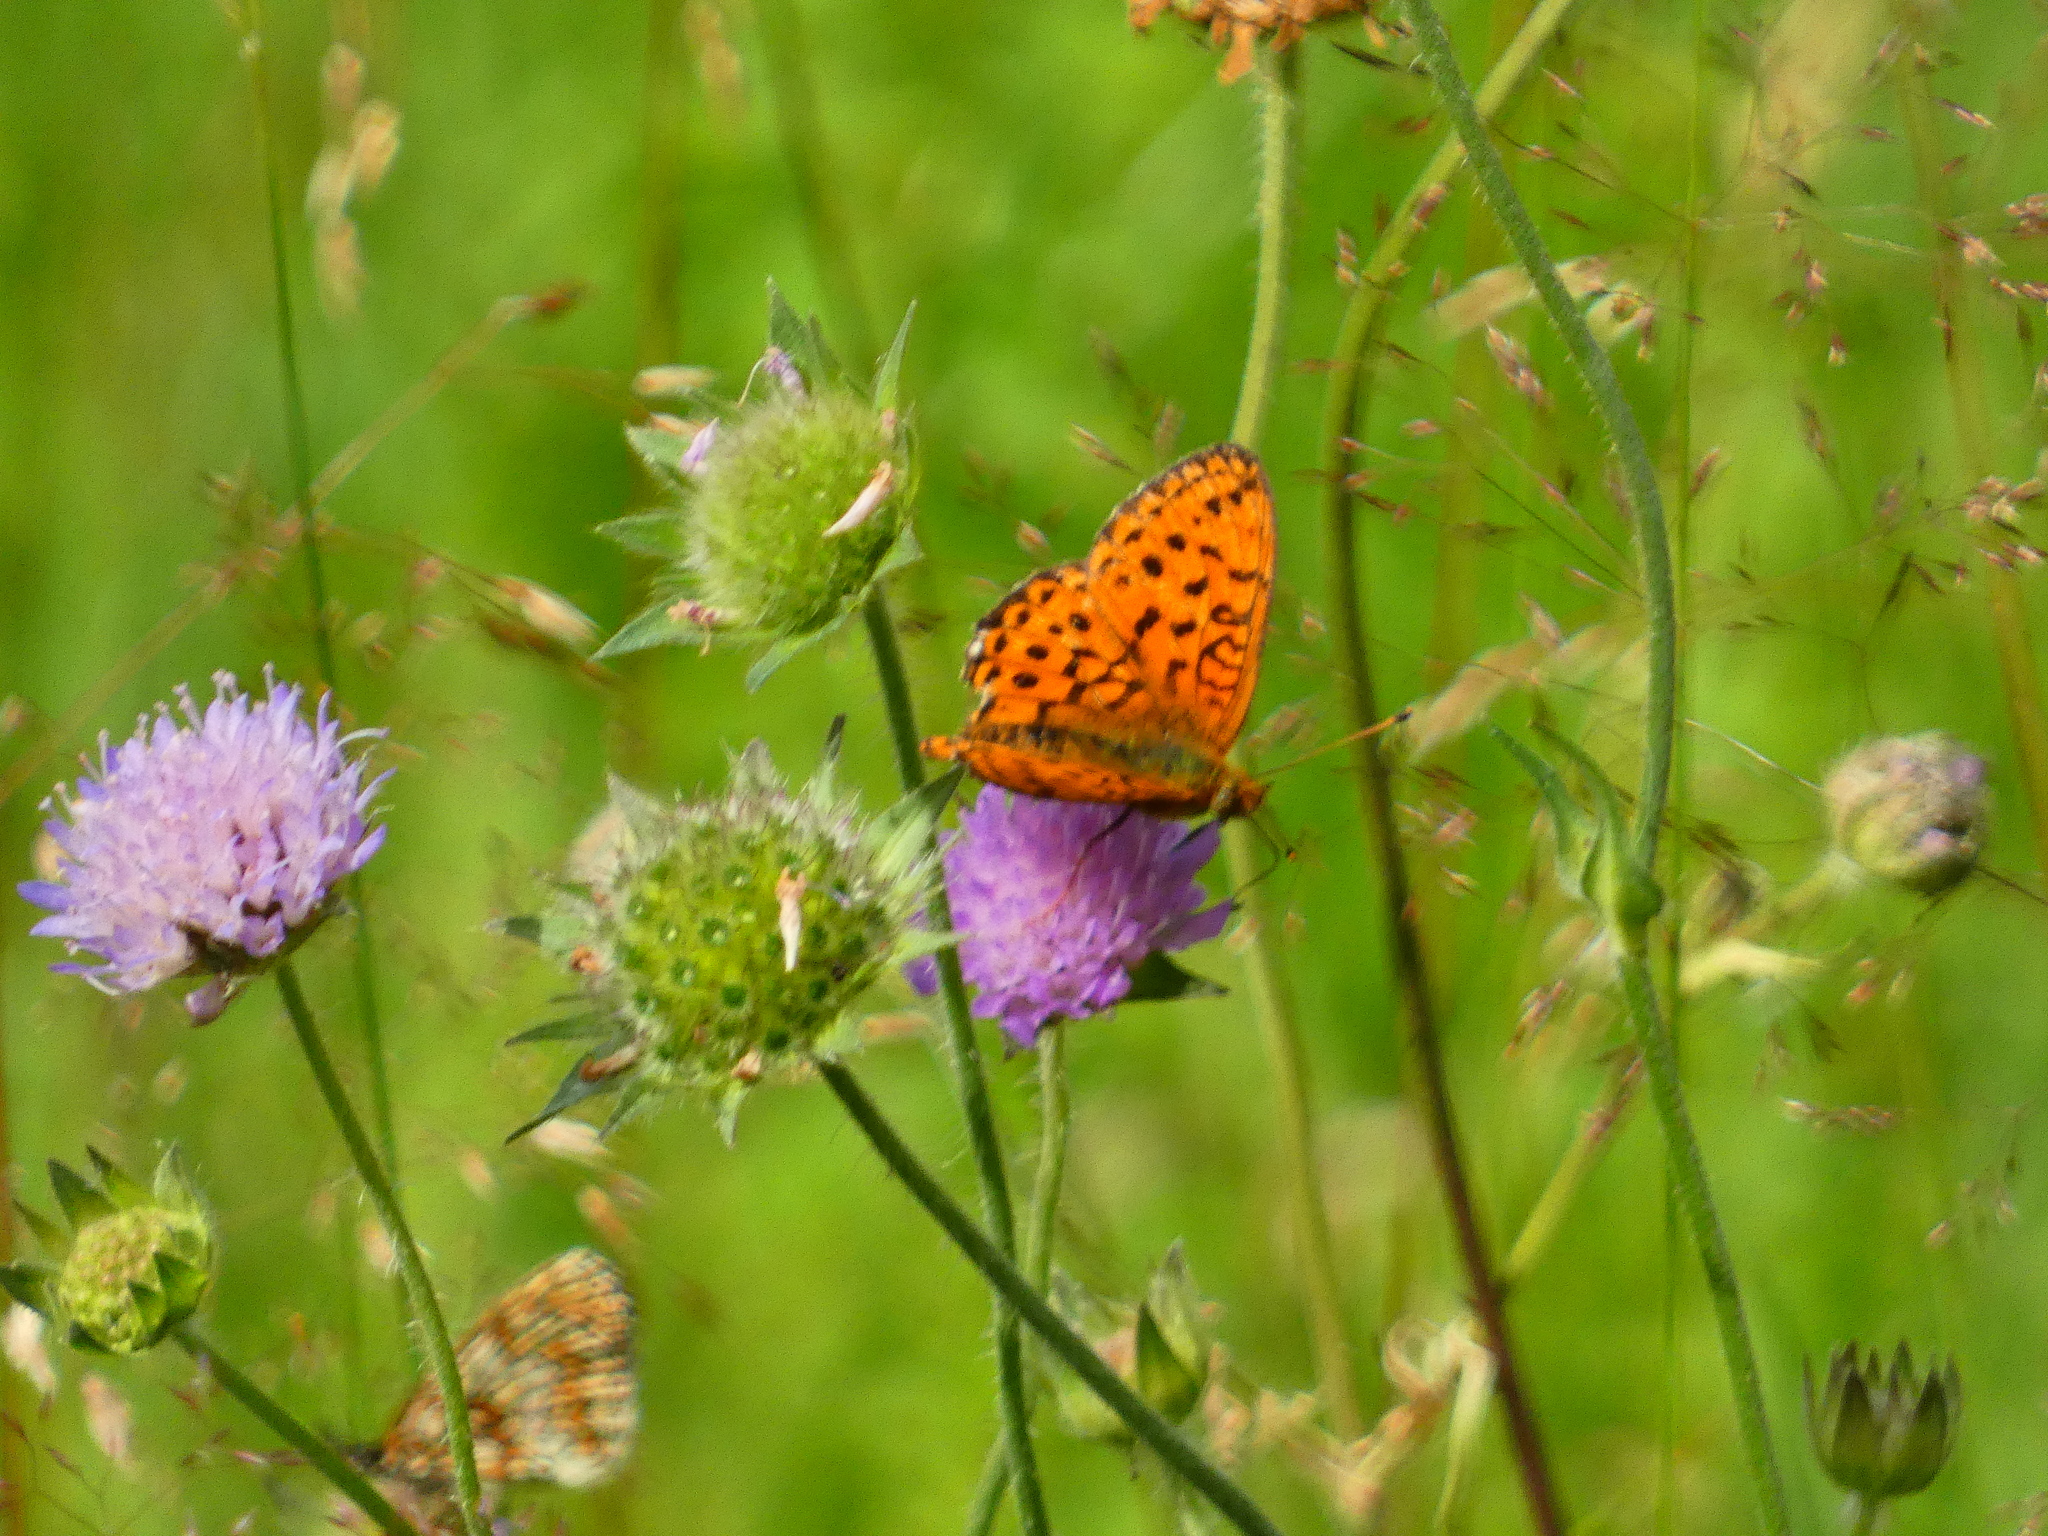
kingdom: Animalia
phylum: Arthropoda
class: Insecta
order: Lepidoptera
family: Nymphalidae
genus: Brenthis
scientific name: Brenthis ino
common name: Lesser marbled fritillary
